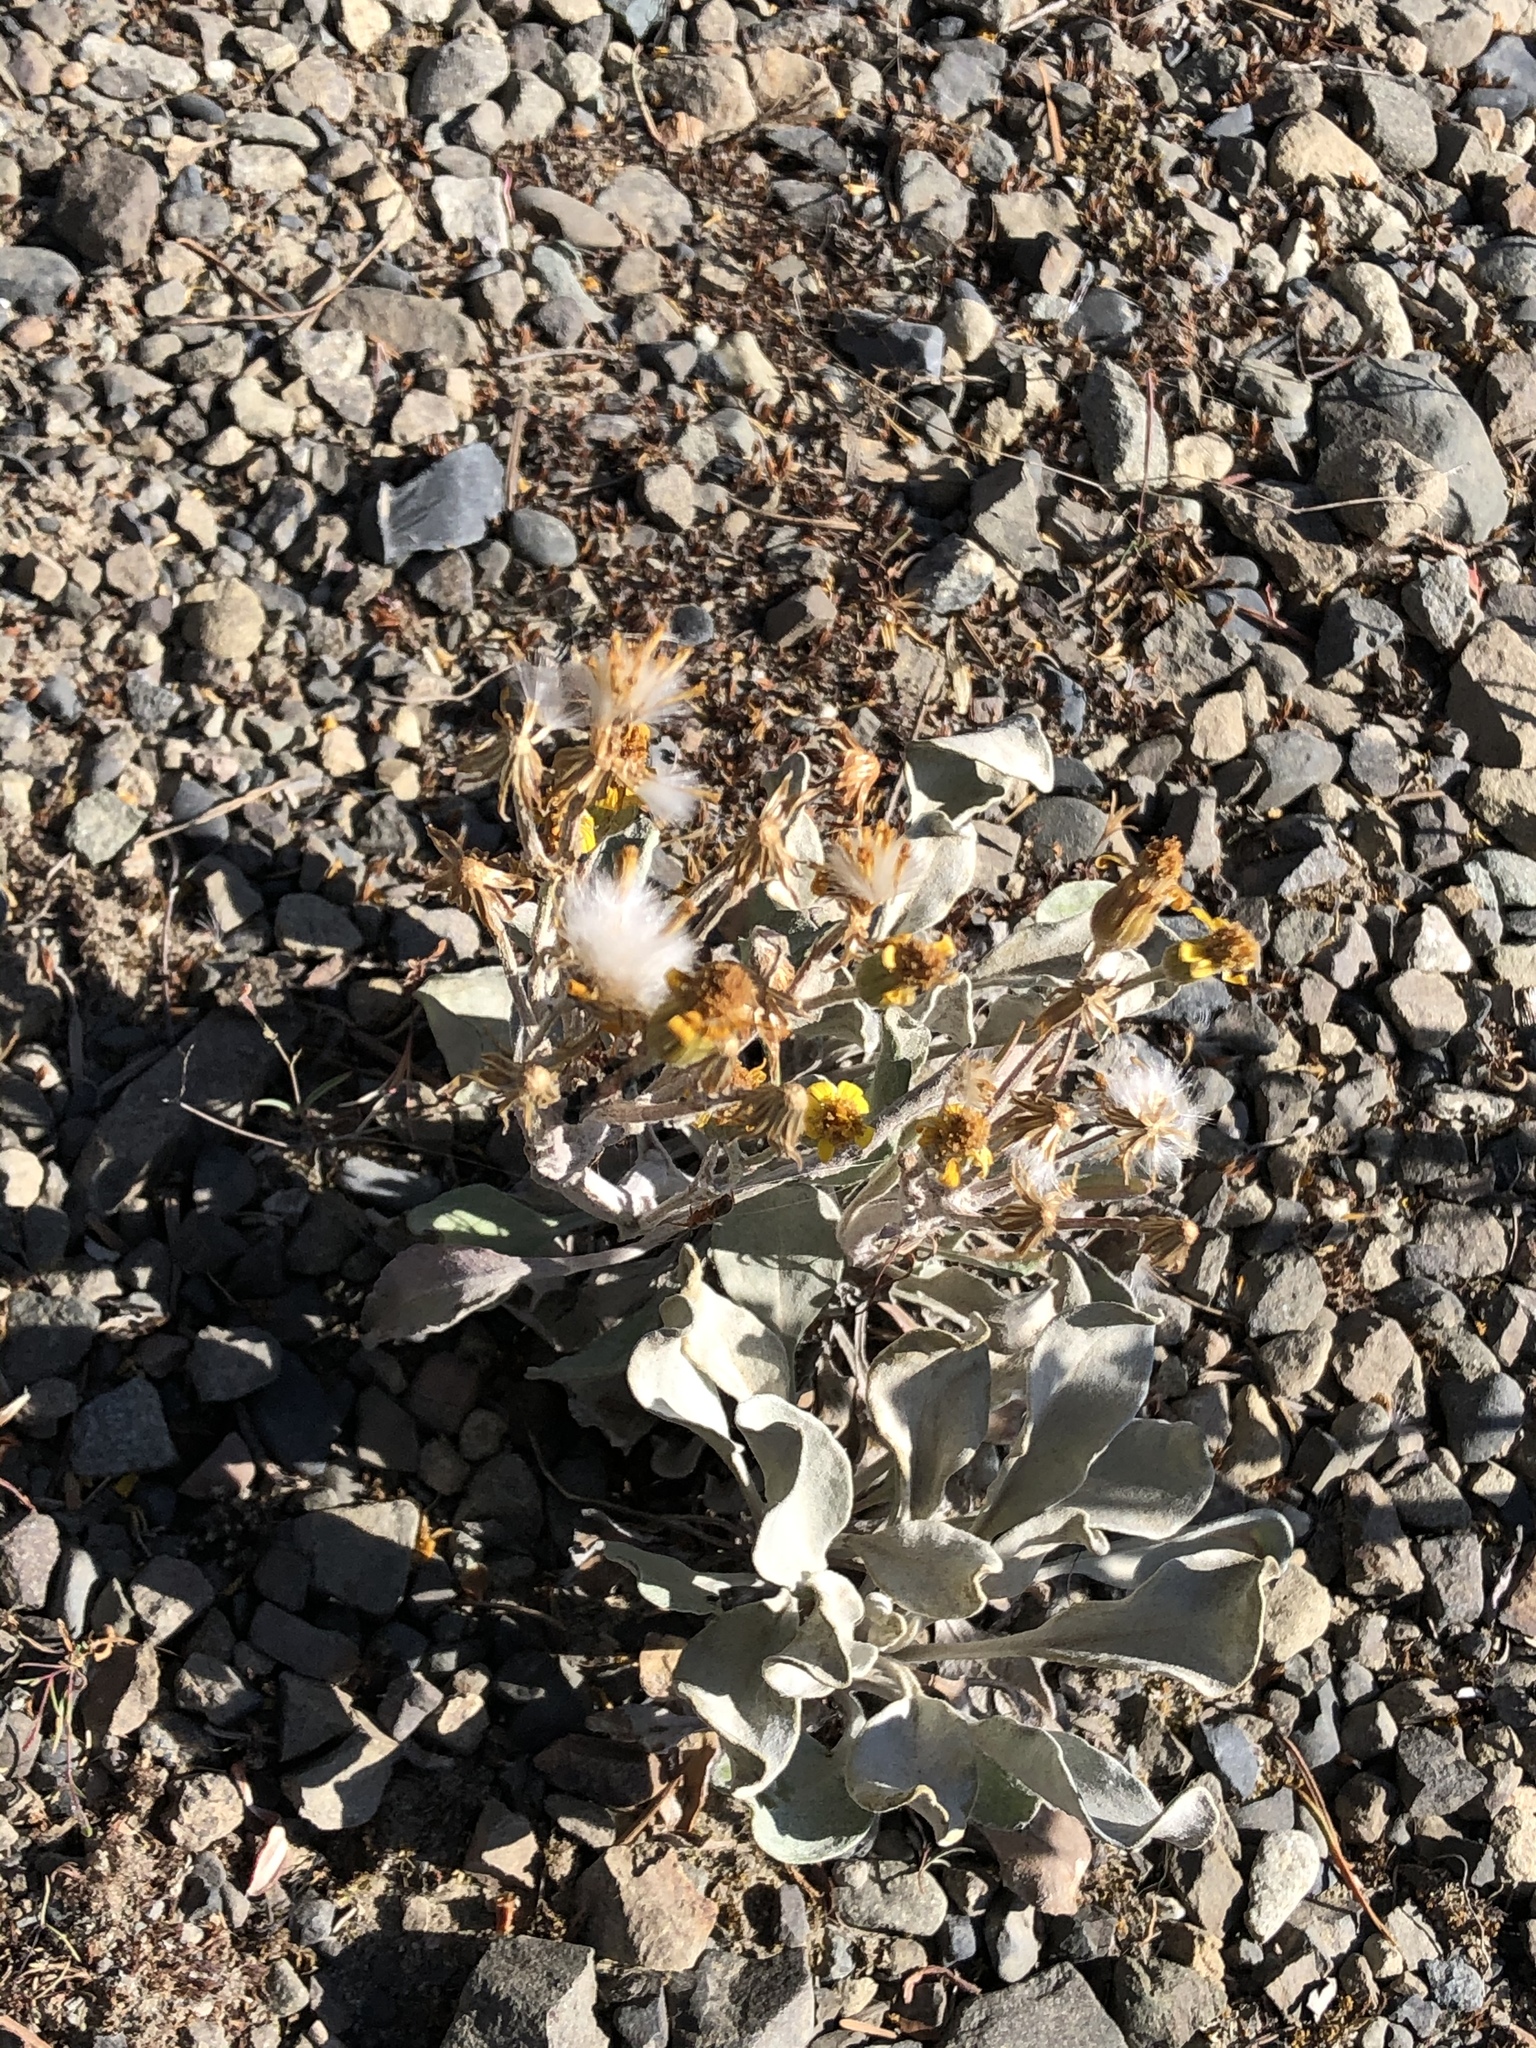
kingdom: Plantae
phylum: Tracheophyta
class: Magnoliopsida
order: Asterales
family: Asteraceae
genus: Packera
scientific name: Packera cana
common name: Woolly groundsel
